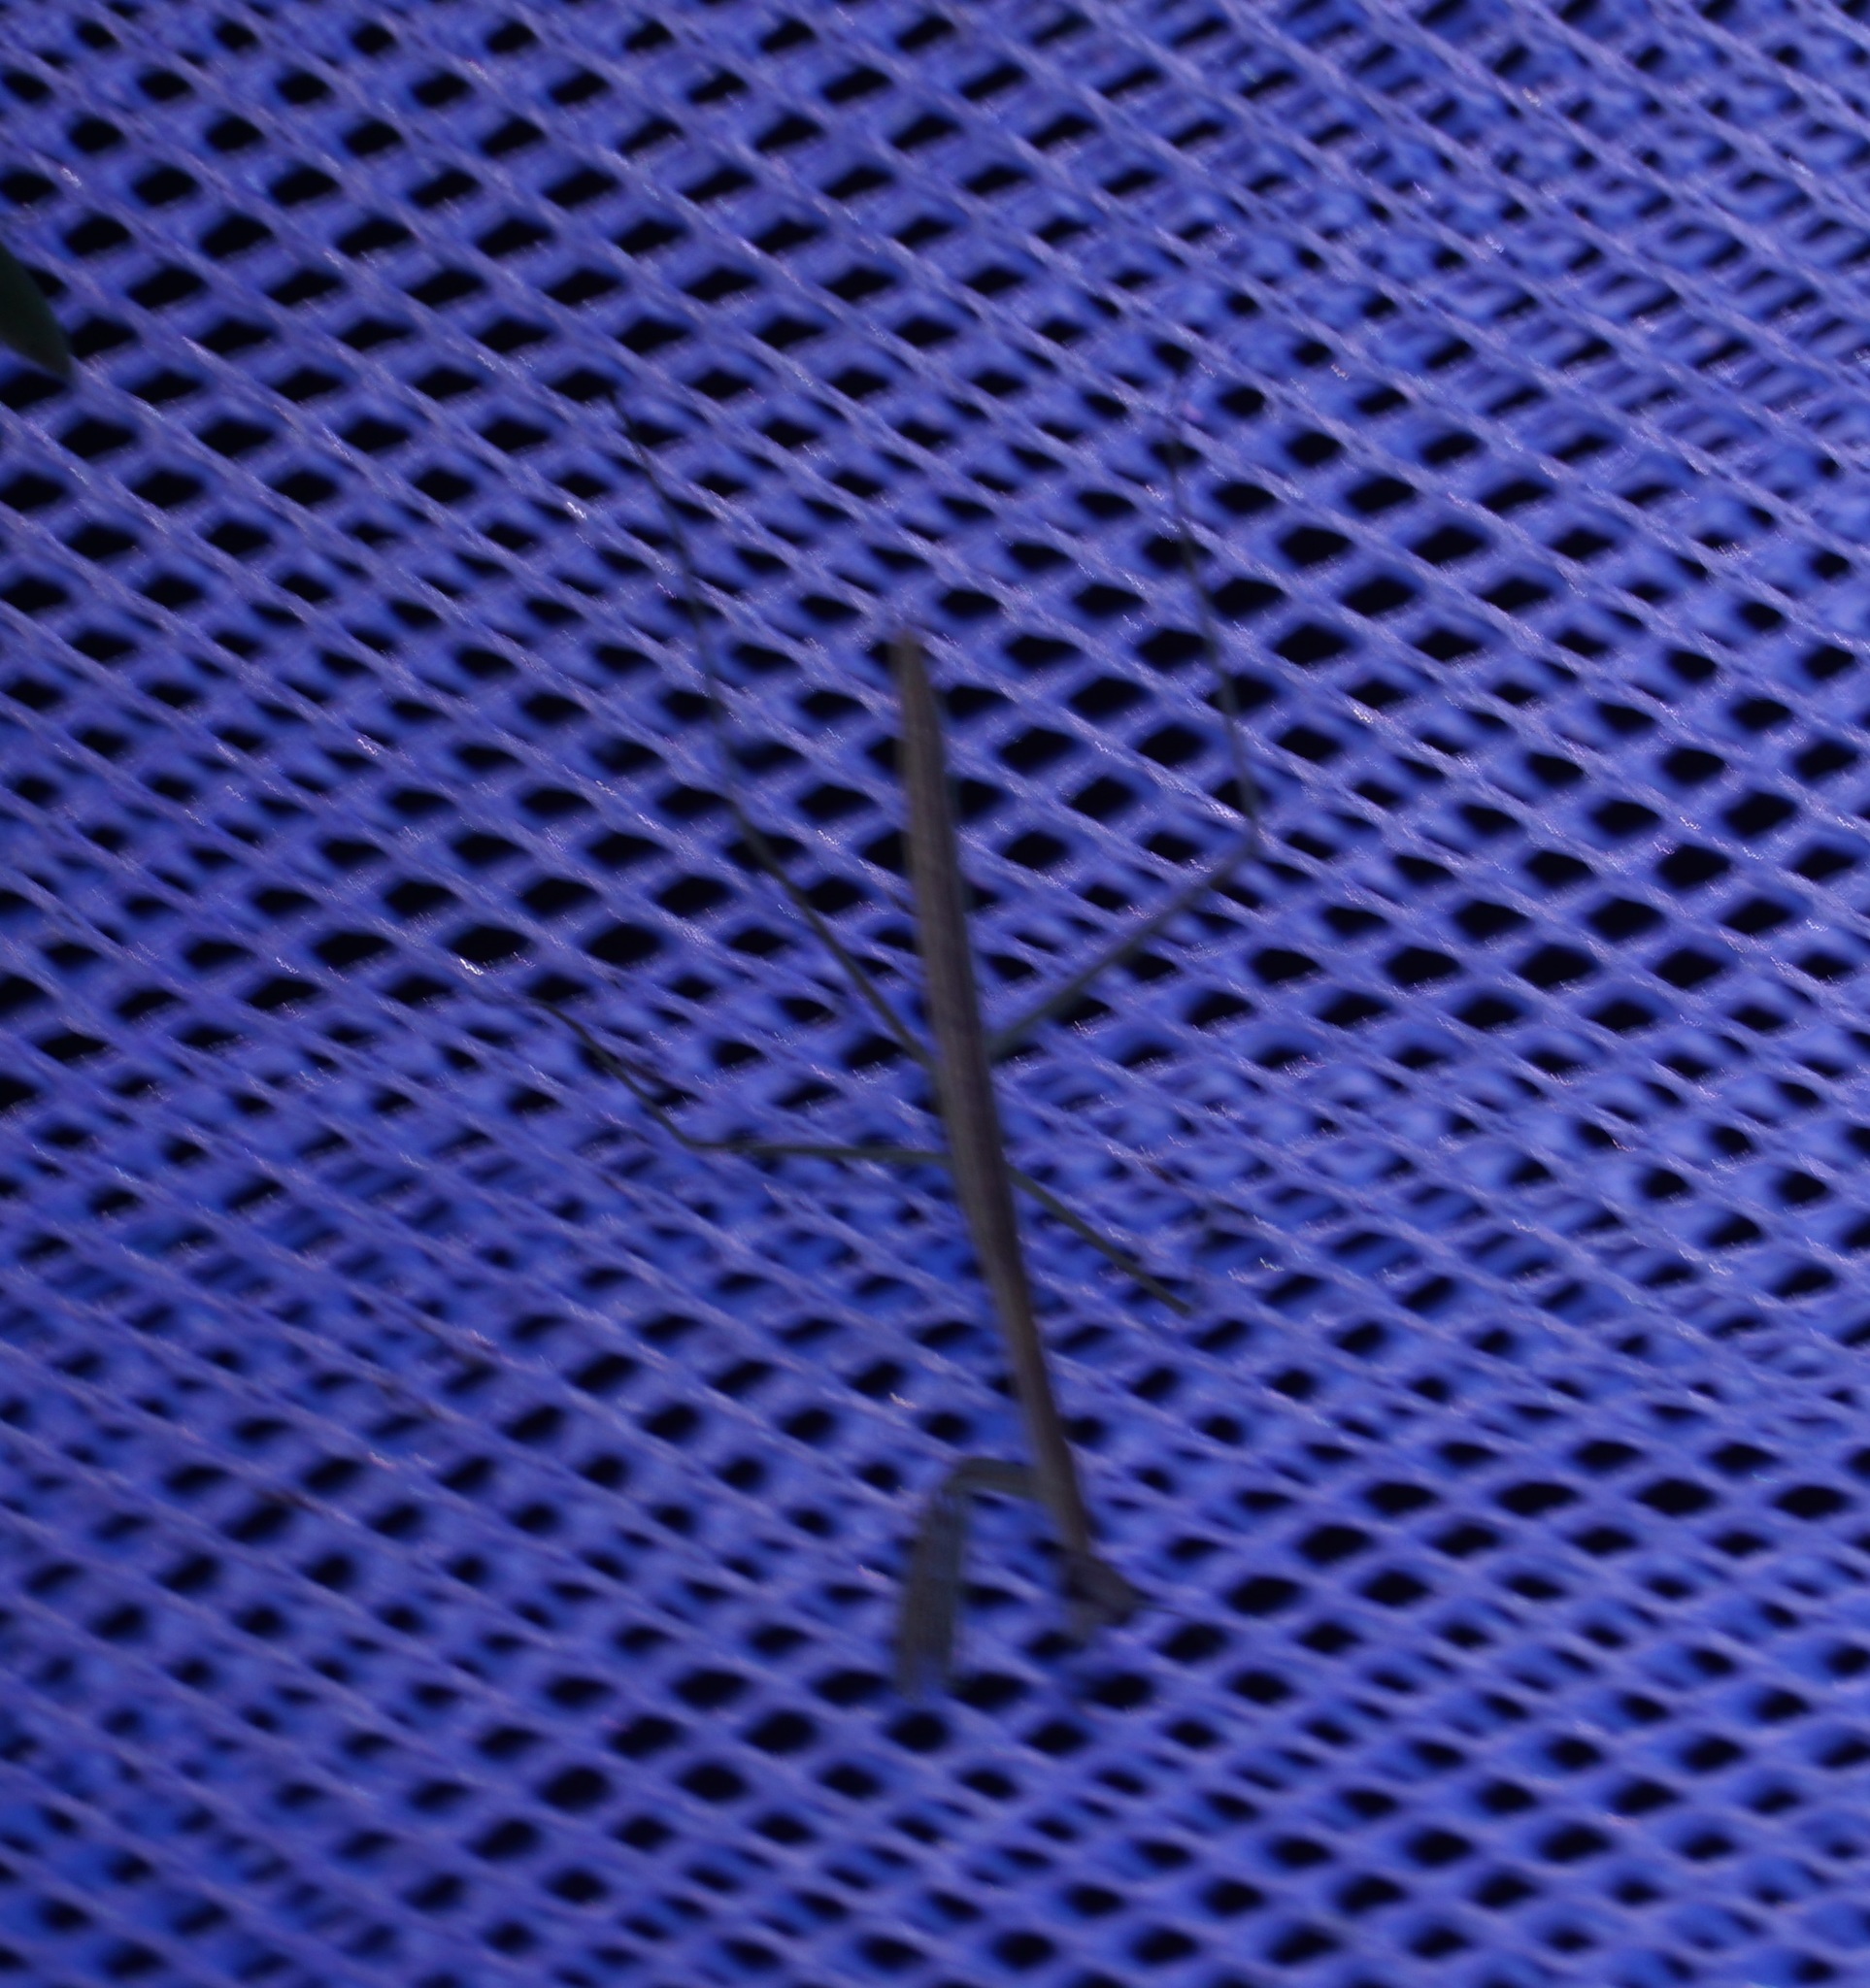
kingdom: Animalia
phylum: Arthropoda
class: Insecta
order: Mantodea
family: Mantidae
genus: Tenodera
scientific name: Tenodera australasiae
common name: Purple-winged mantis
